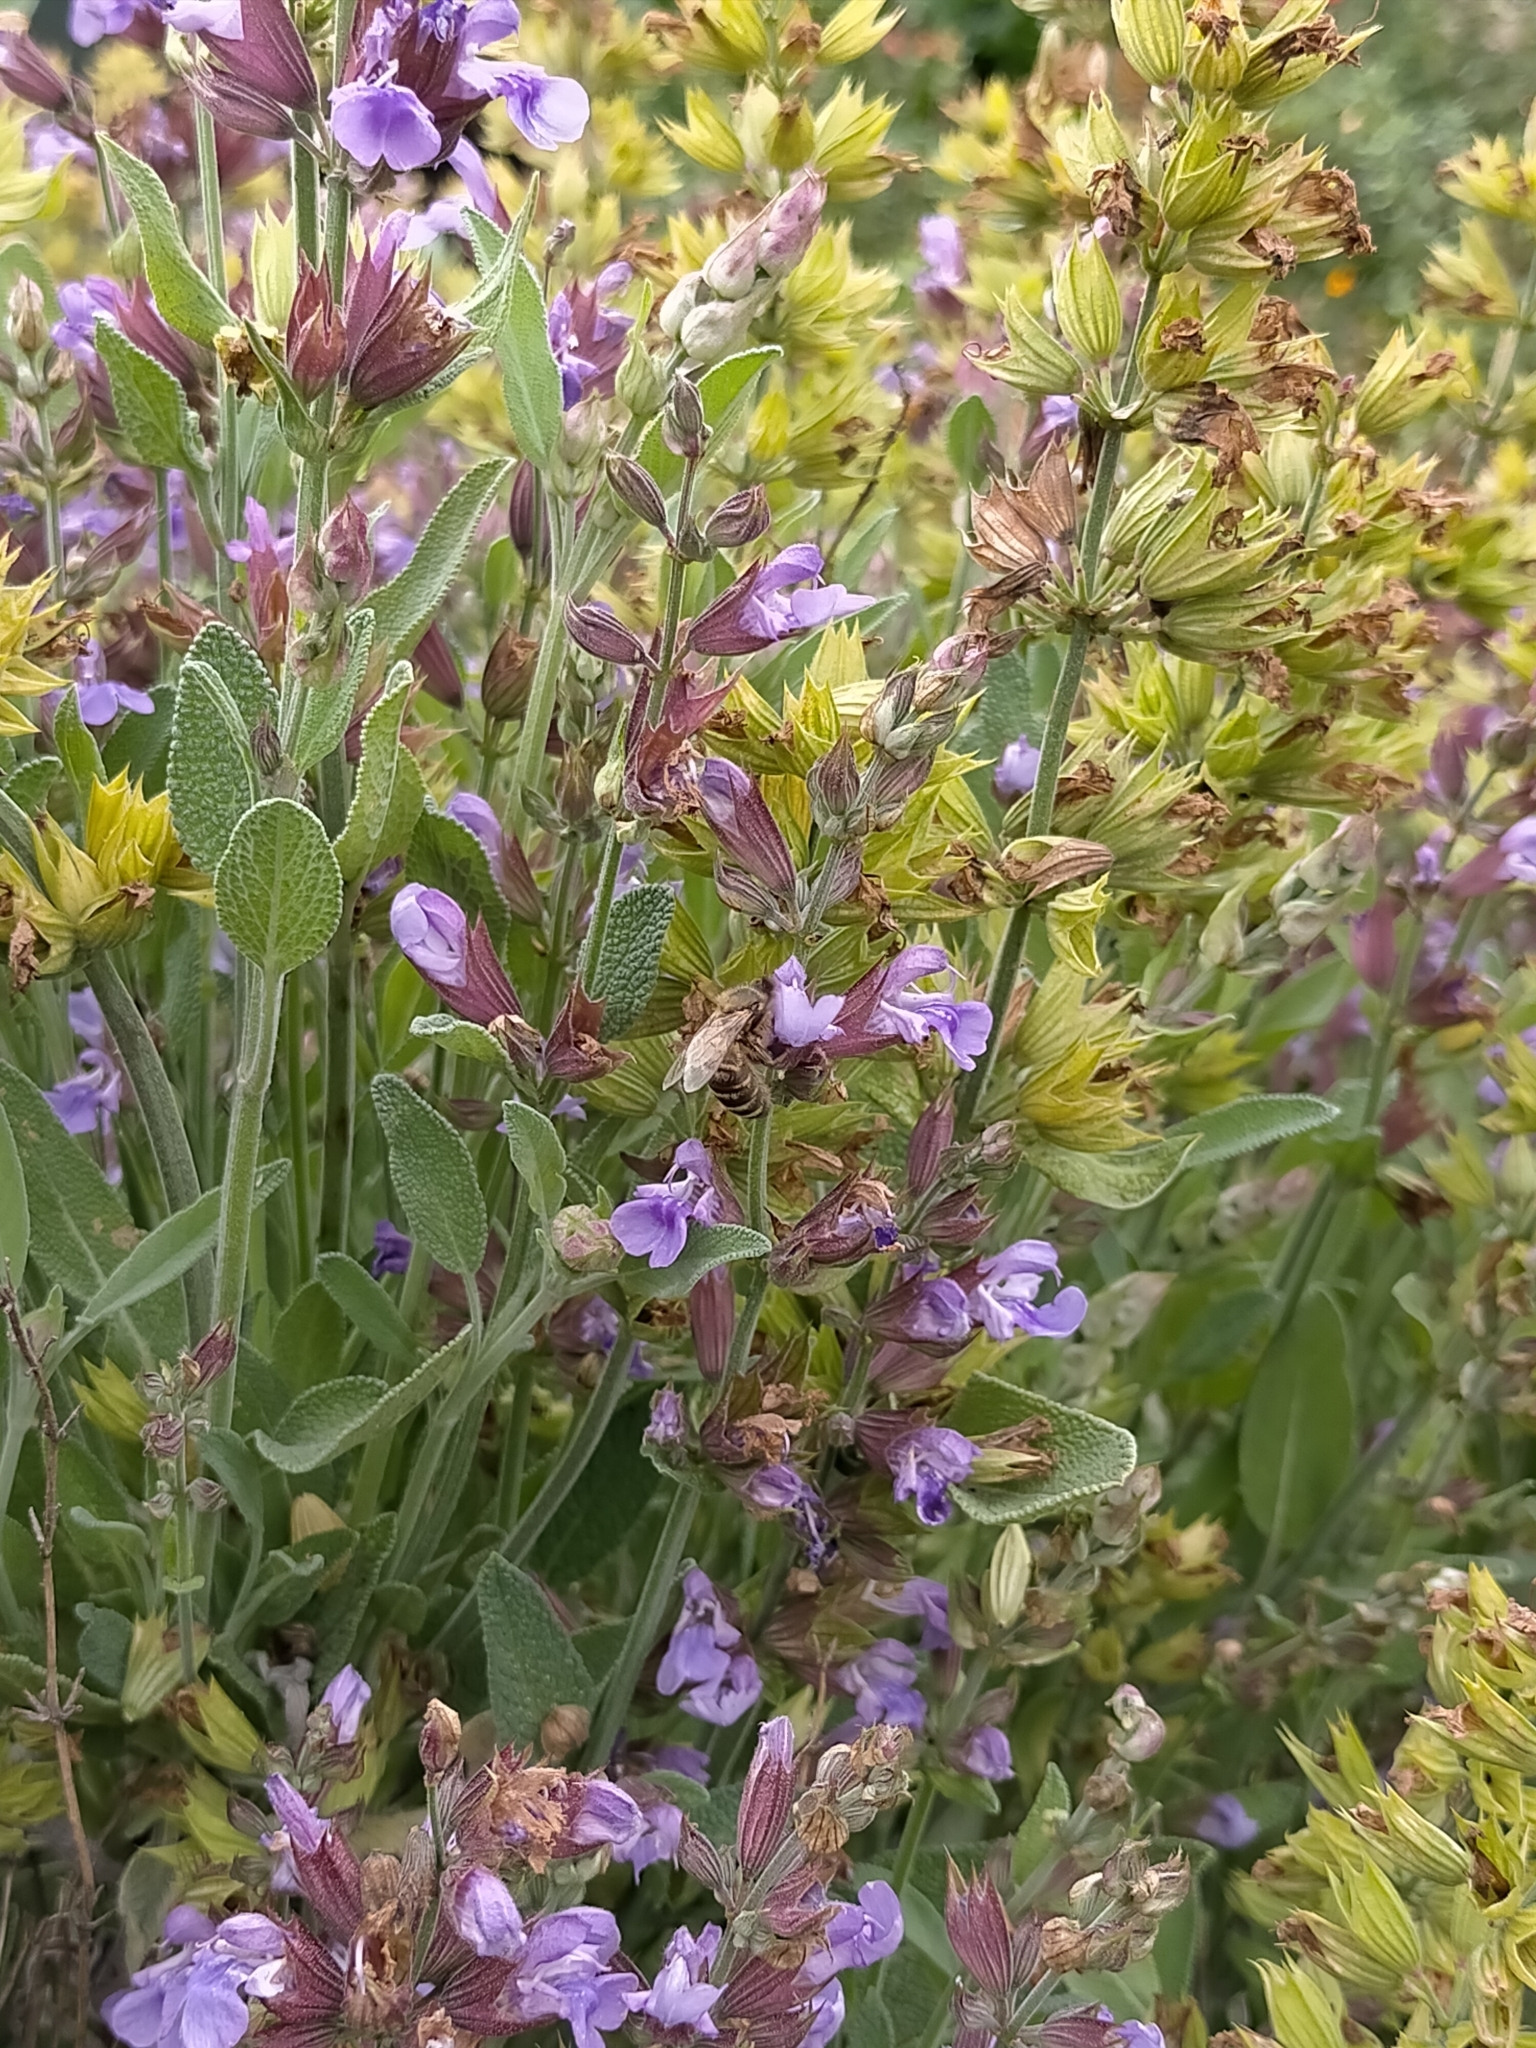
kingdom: Animalia
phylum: Arthropoda
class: Insecta
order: Hymenoptera
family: Apidae
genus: Apis
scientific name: Apis mellifera
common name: Honey bee
